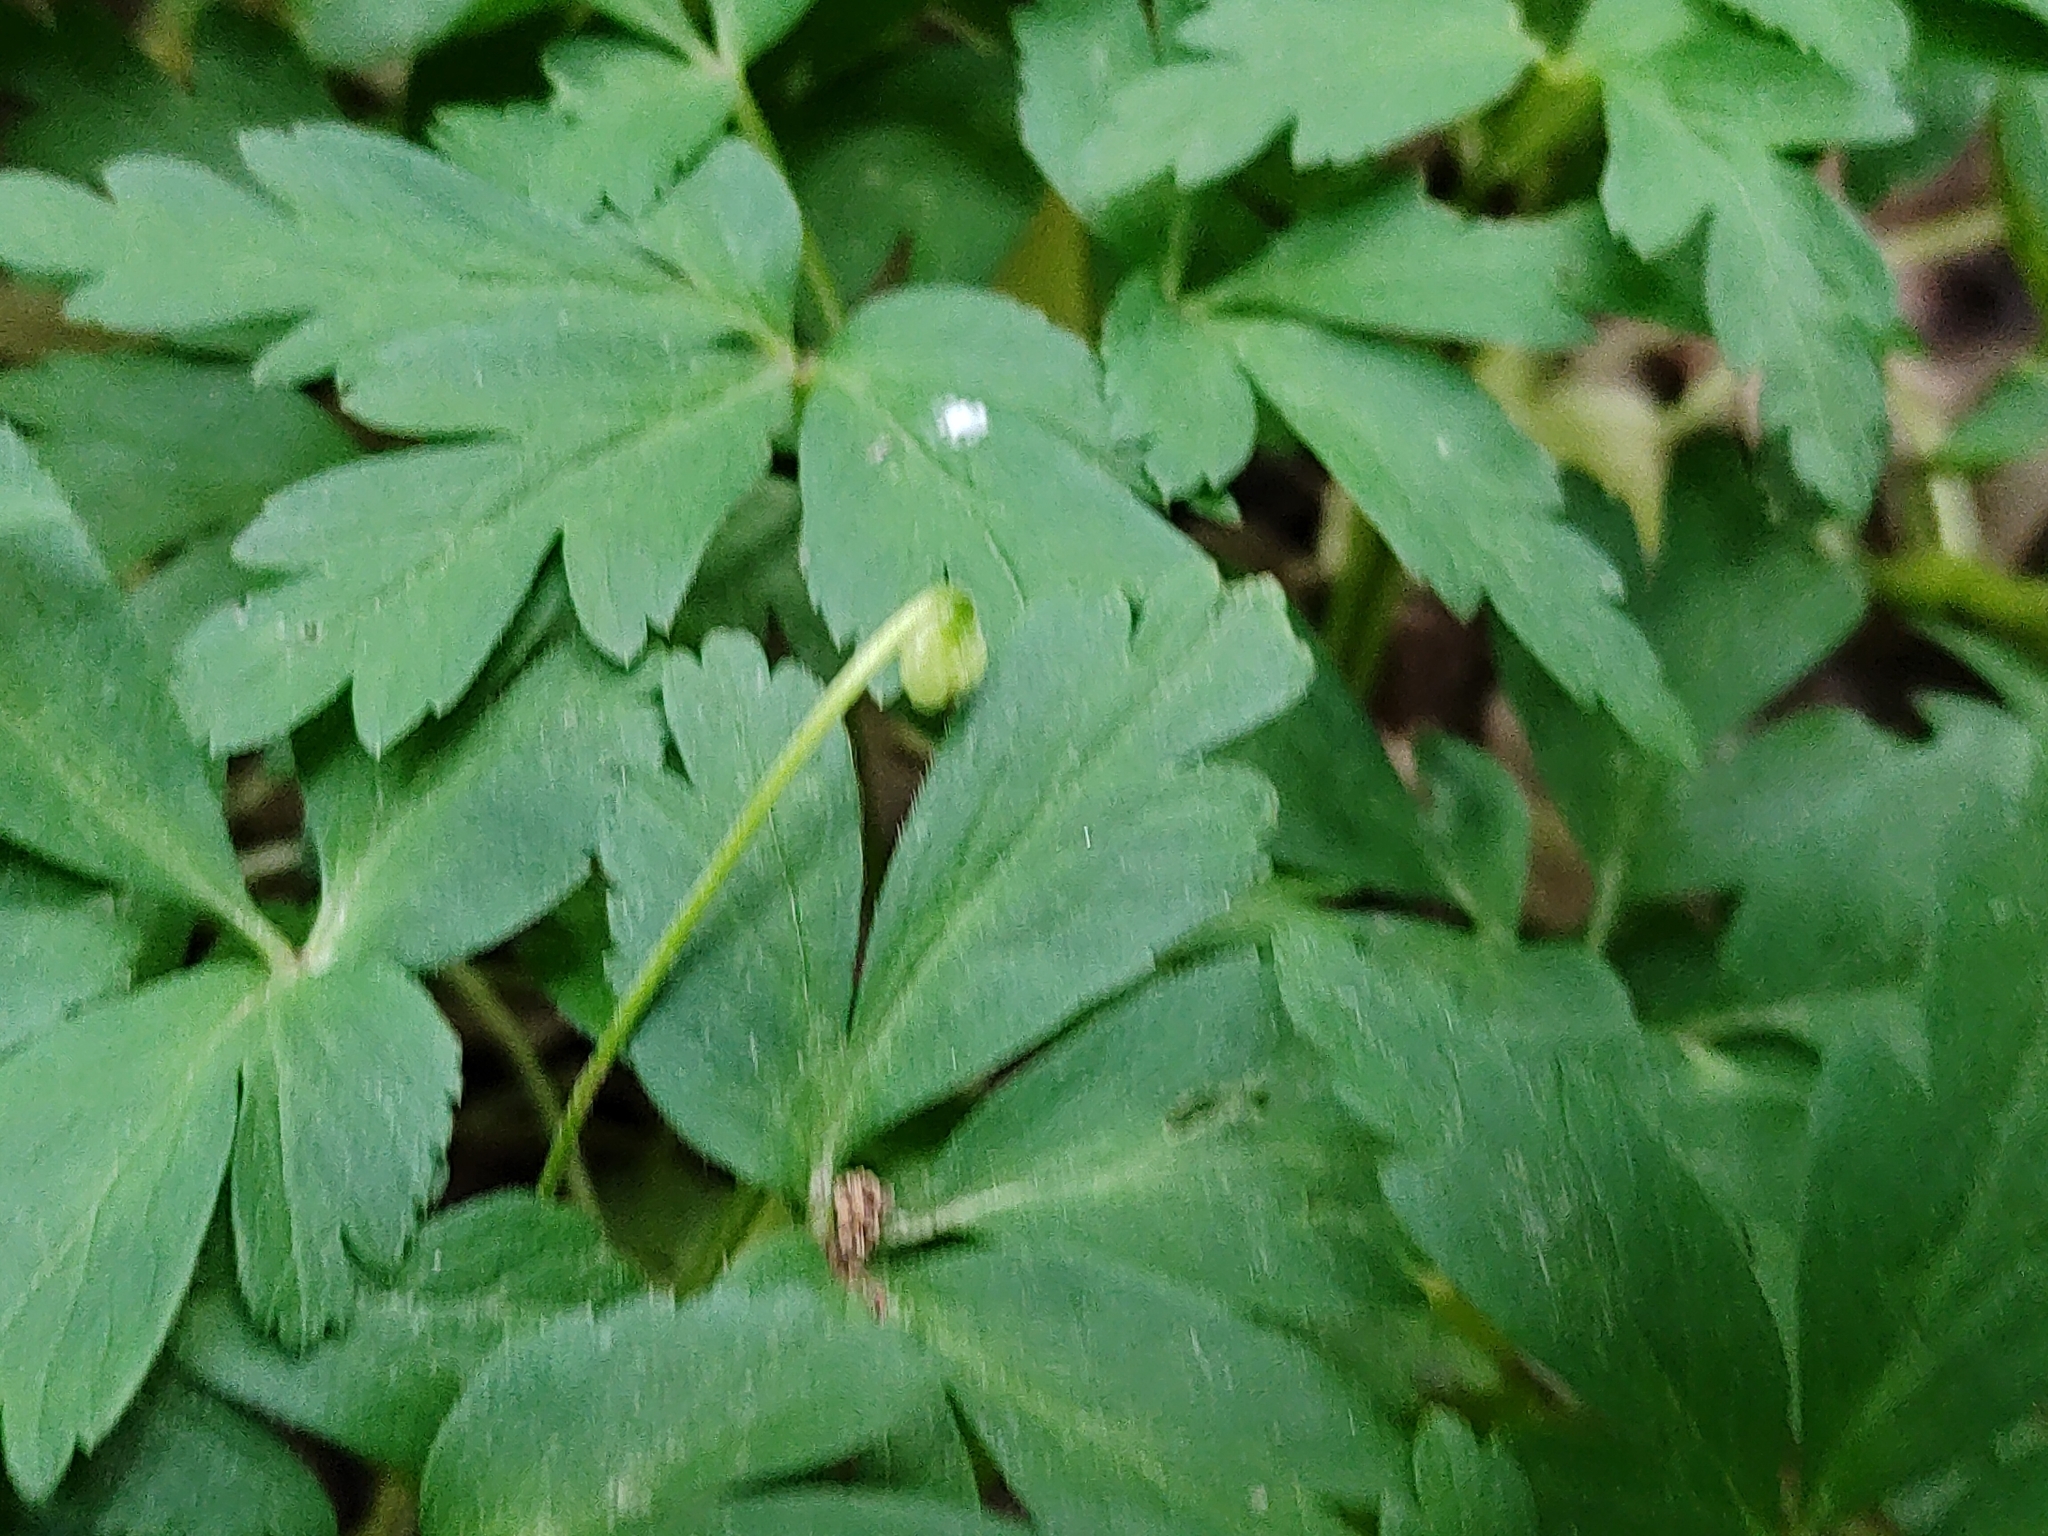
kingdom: Plantae
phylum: Tracheophyta
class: Magnoliopsida
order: Ranunculales
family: Ranunculaceae
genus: Anemone
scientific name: Anemone nemorosa
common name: Wood anemone
